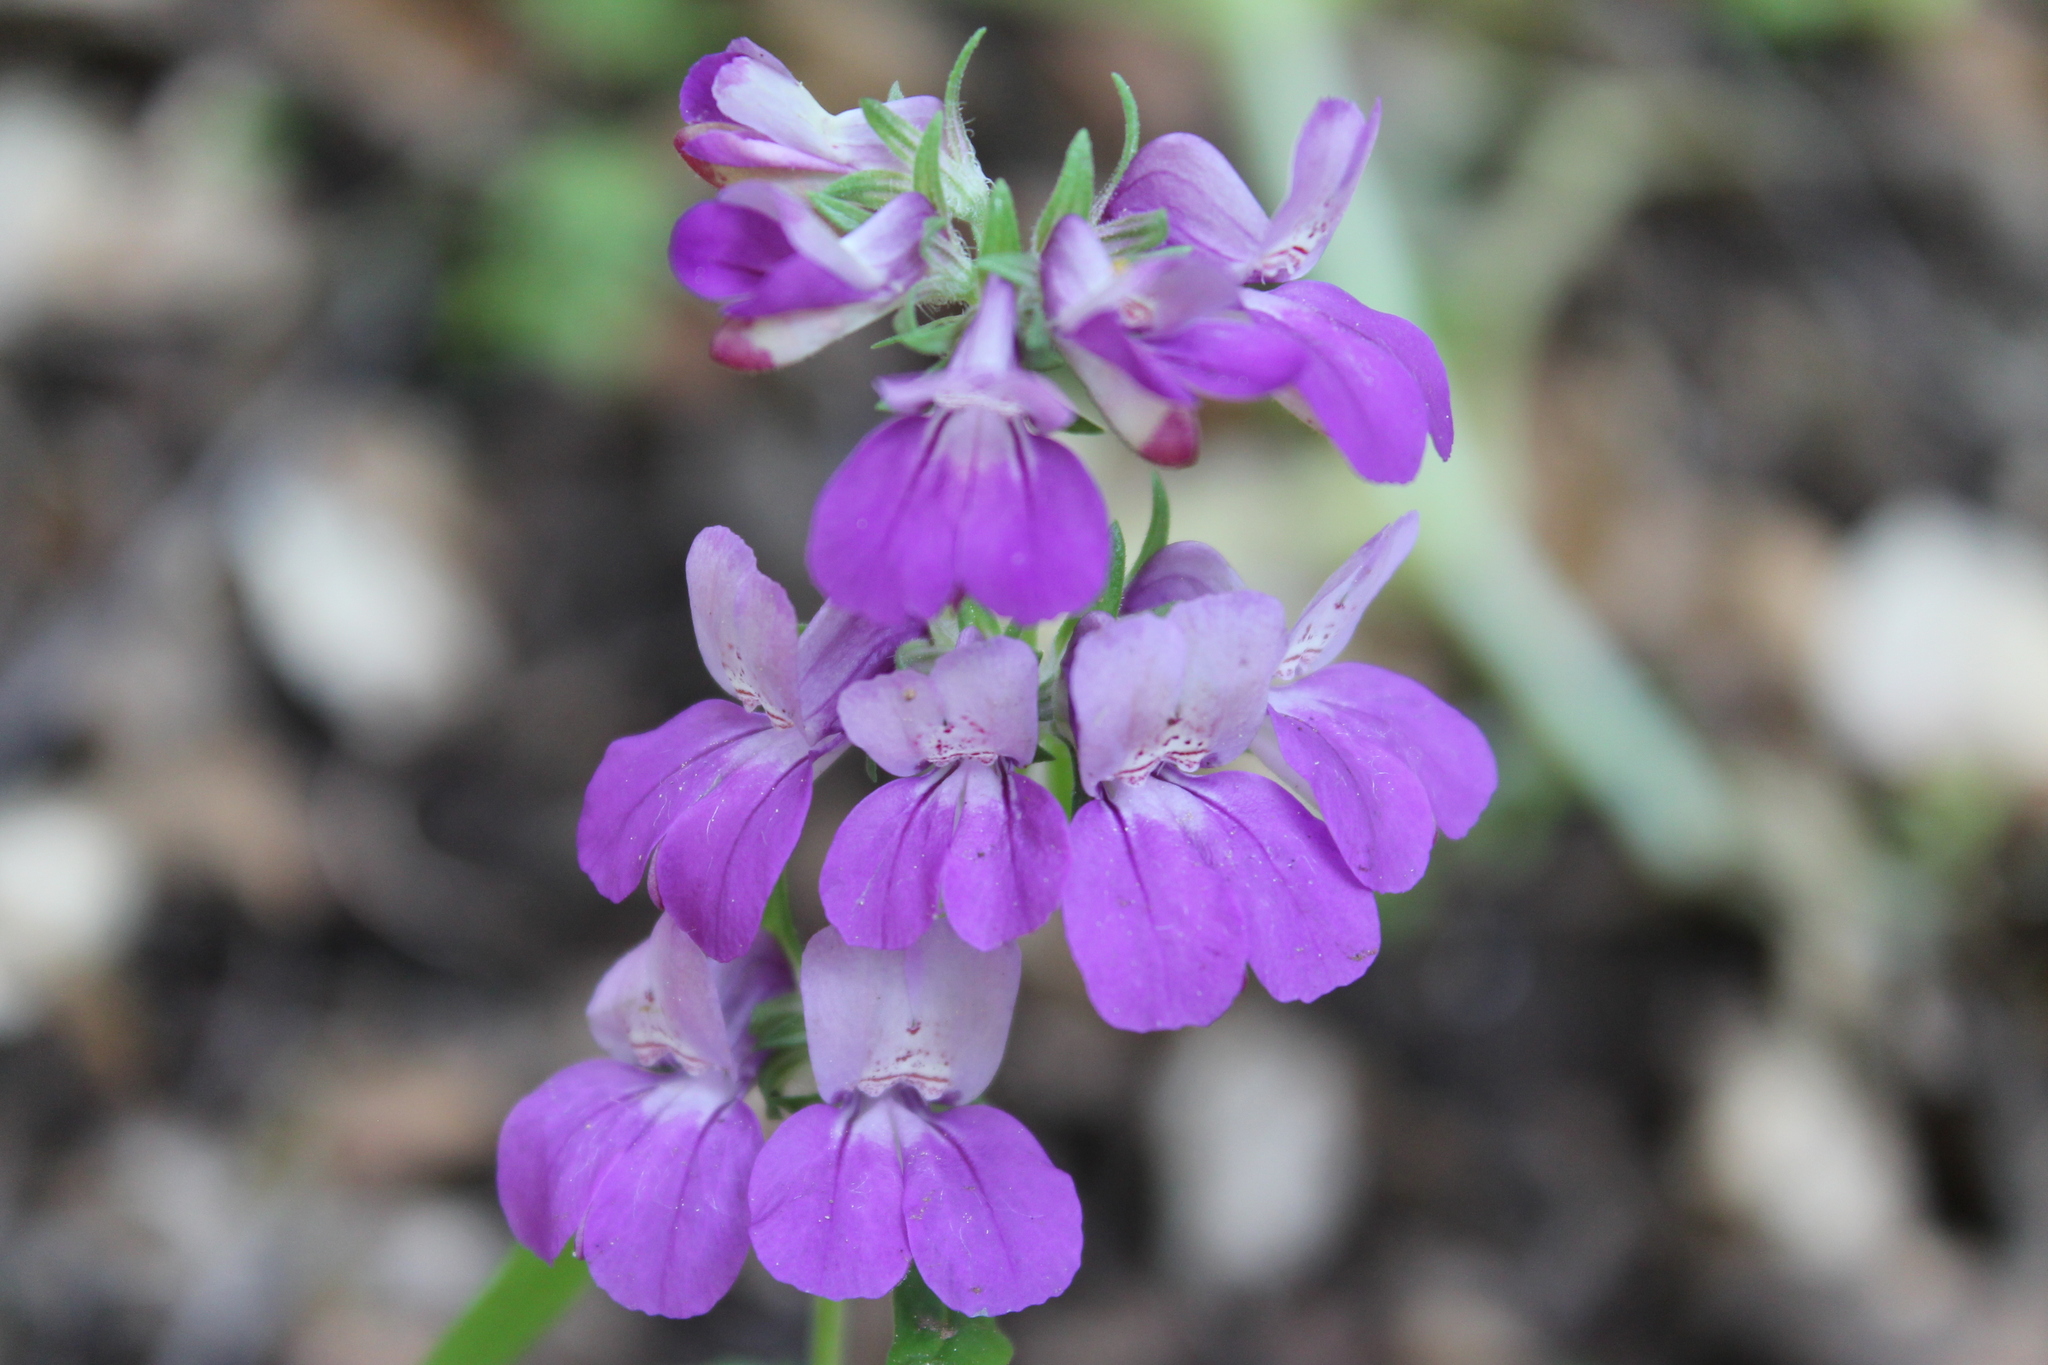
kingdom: Plantae
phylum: Tracheophyta
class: Magnoliopsida
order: Lamiales
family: Plantaginaceae
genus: Collinsia
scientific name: Collinsia heterophylla
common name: Chinese-houses
